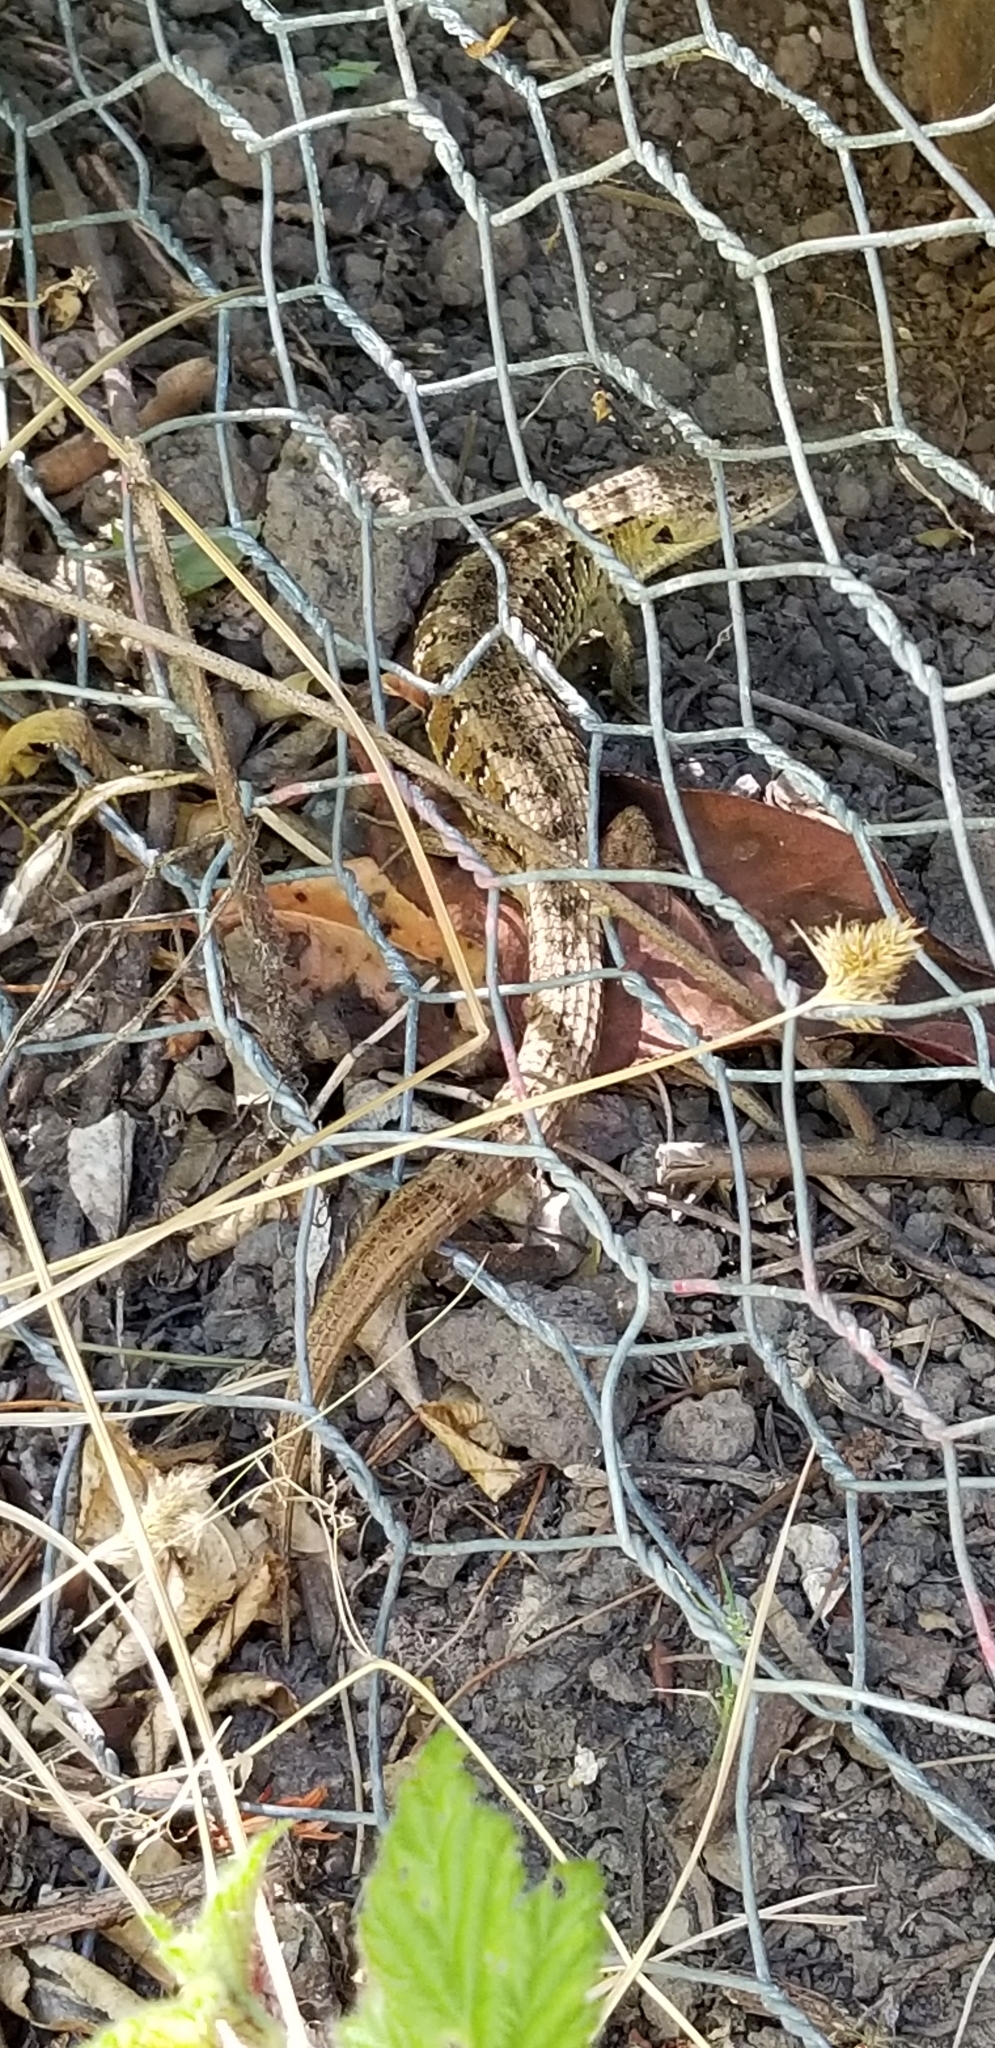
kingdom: Animalia
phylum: Chordata
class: Squamata
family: Anguidae
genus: Elgaria
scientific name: Elgaria coerulea
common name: Northern alligator lizard
